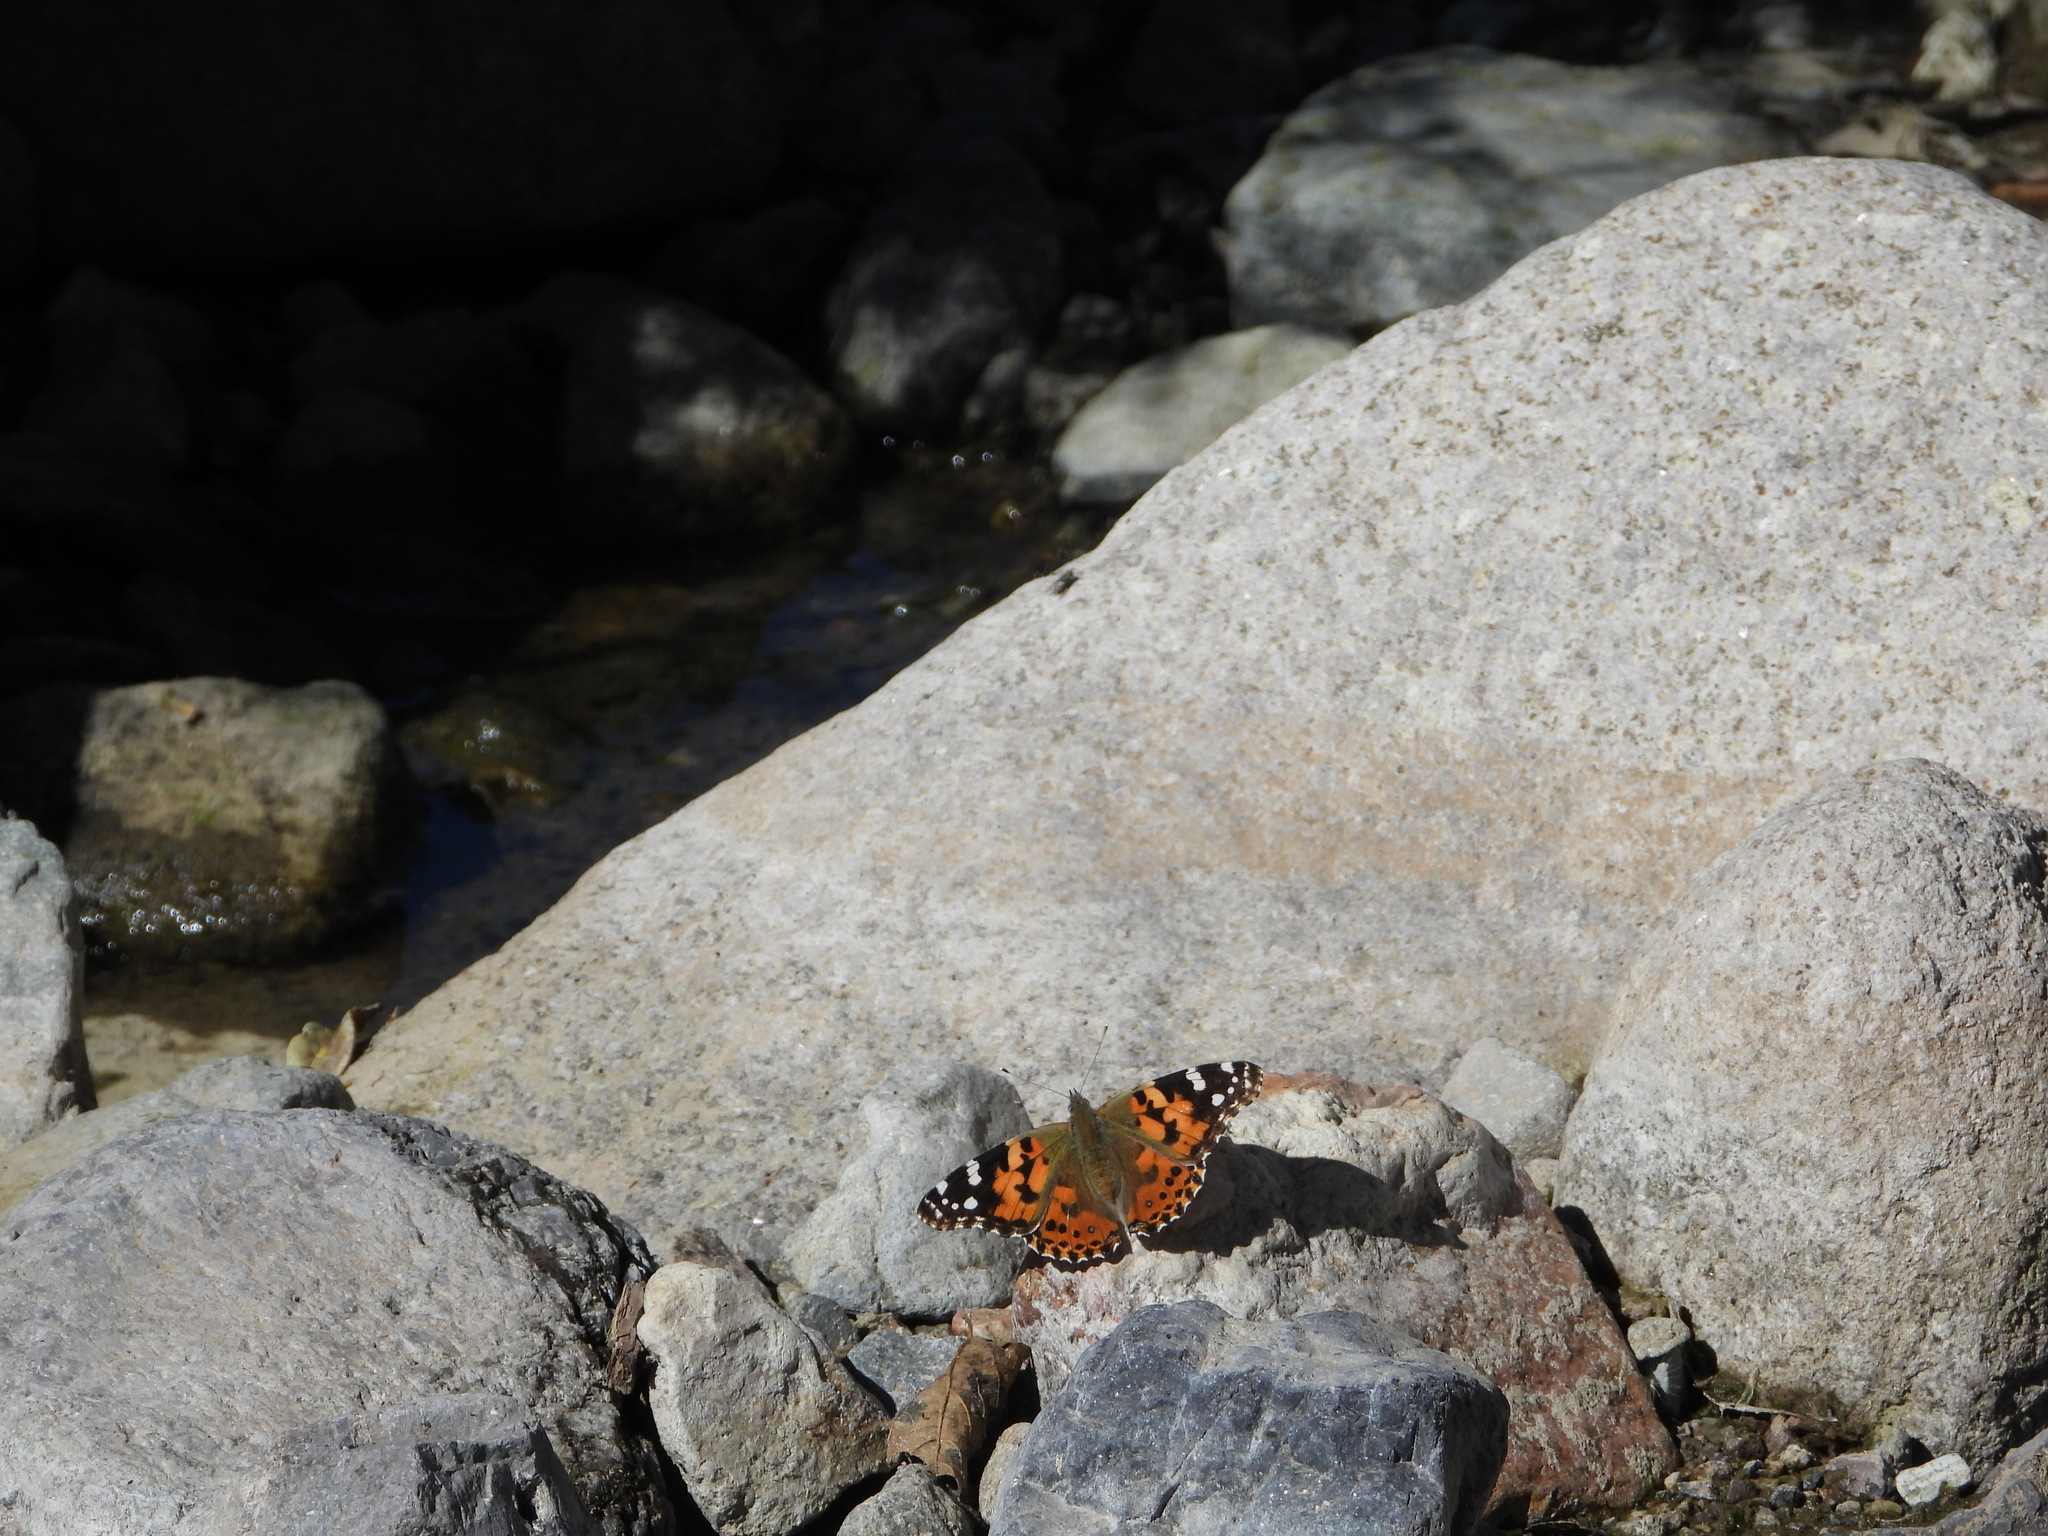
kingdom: Animalia
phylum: Arthropoda
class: Insecta
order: Lepidoptera
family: Nymphalidae
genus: Vanessa
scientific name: Vanessa cardui
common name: Painted lady
